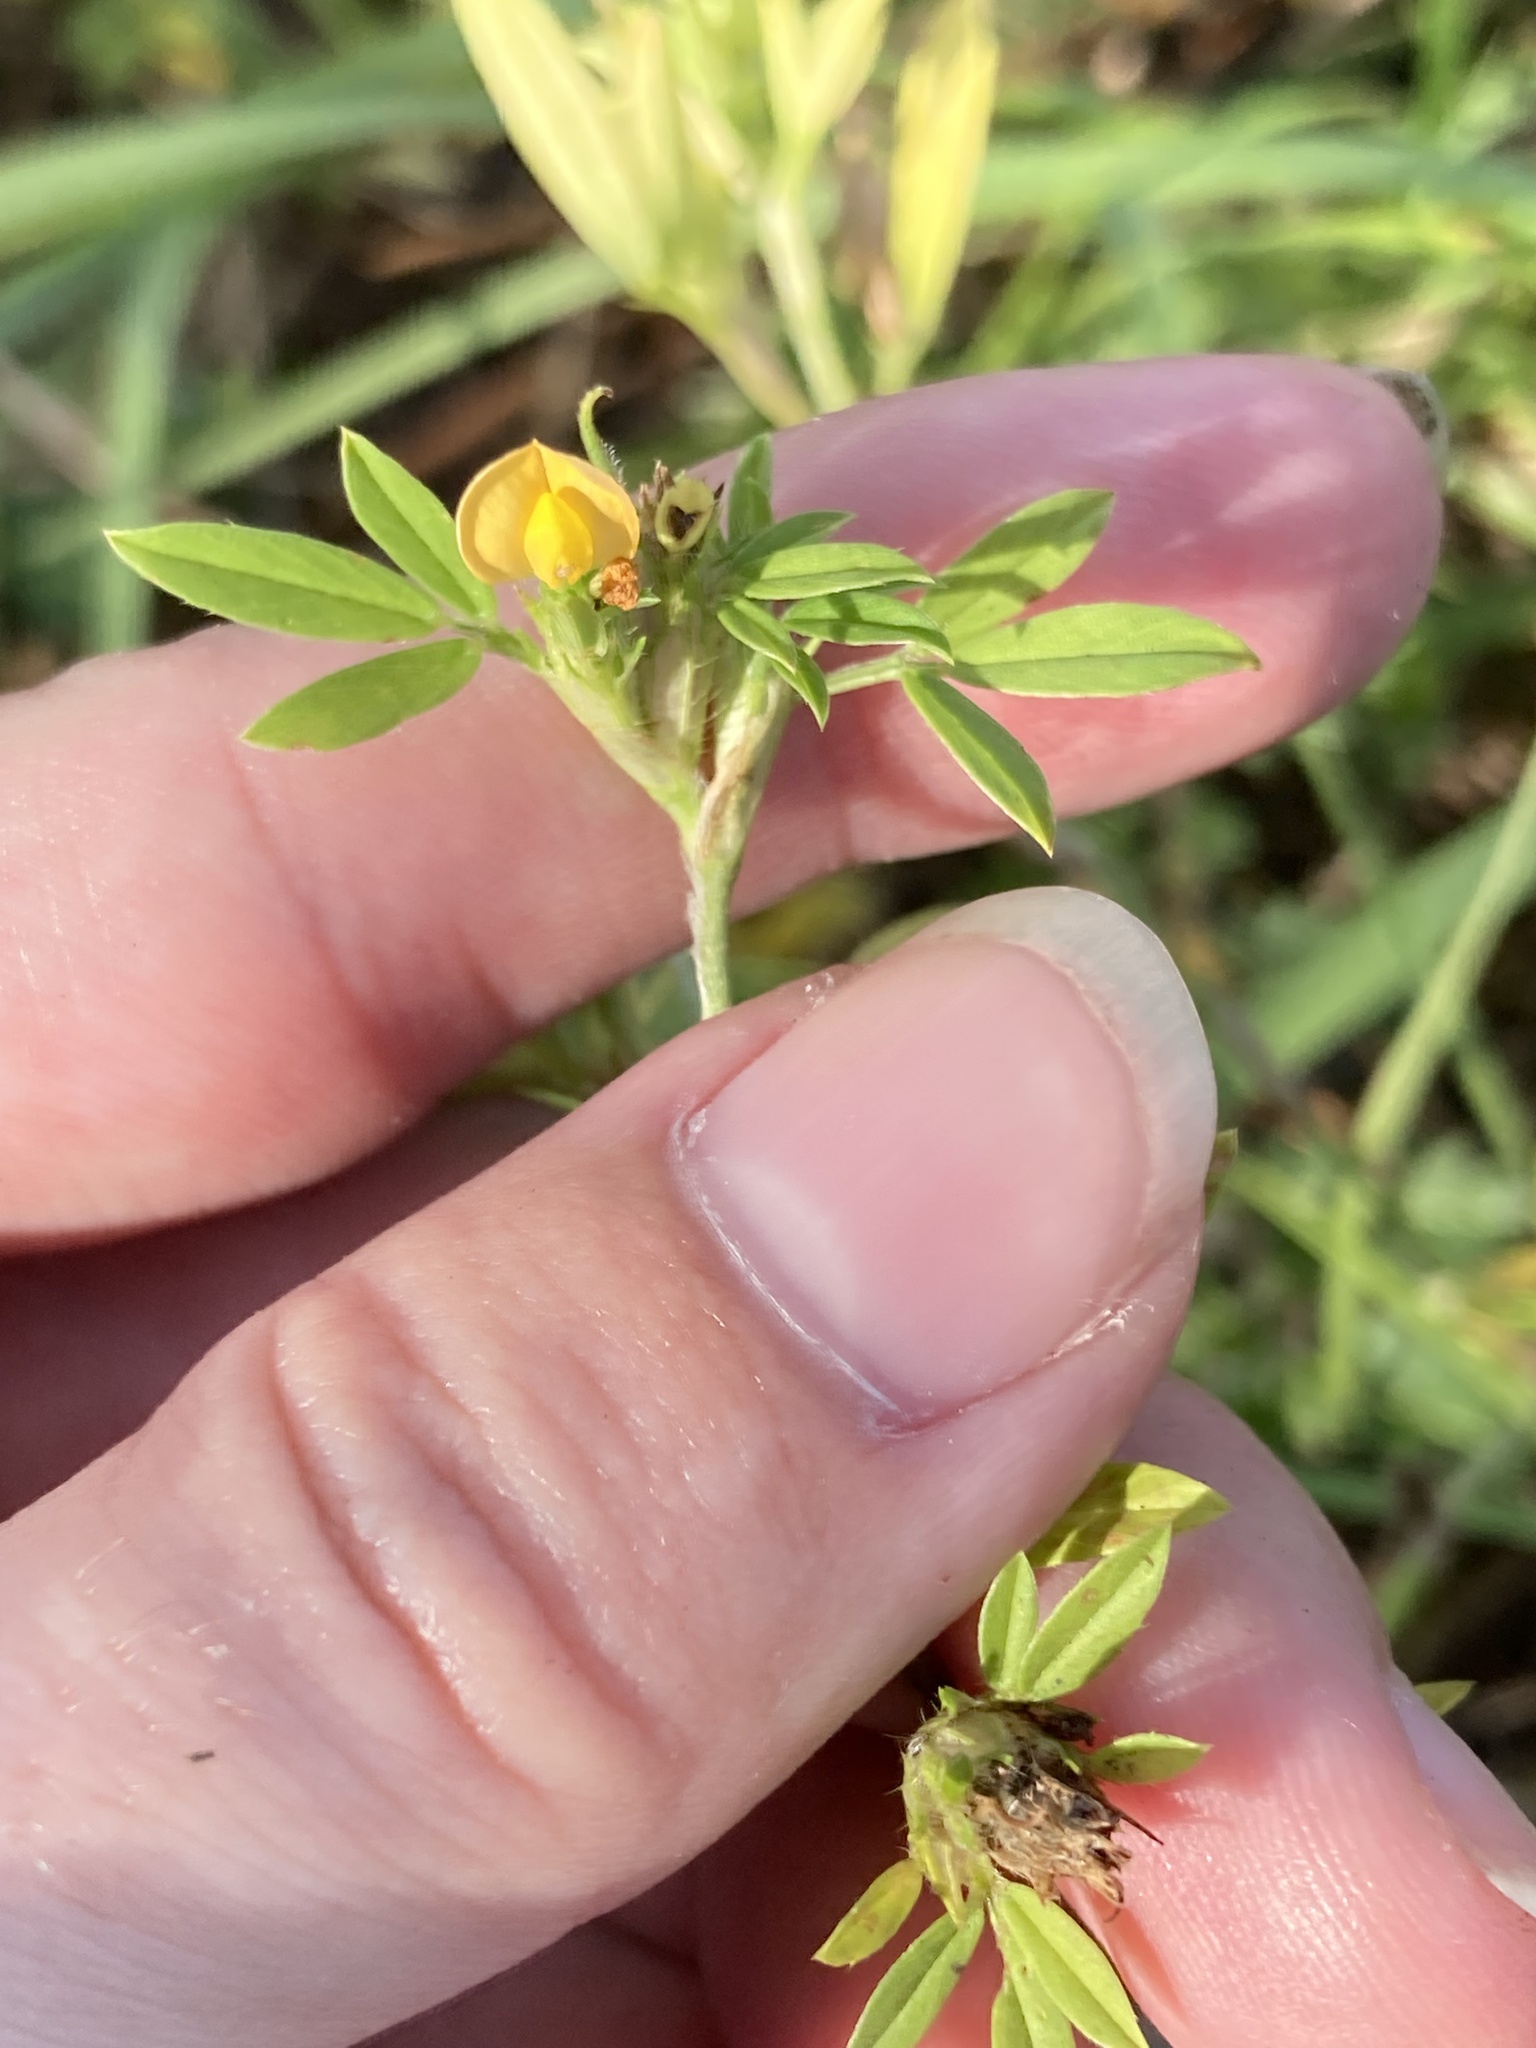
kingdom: Plantae
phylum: Tracheophyta
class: Magnoliopsida
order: Fabales
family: Fabaceae
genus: Stylosanthes
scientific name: Stylosanthes hamata
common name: Cheesytoes
